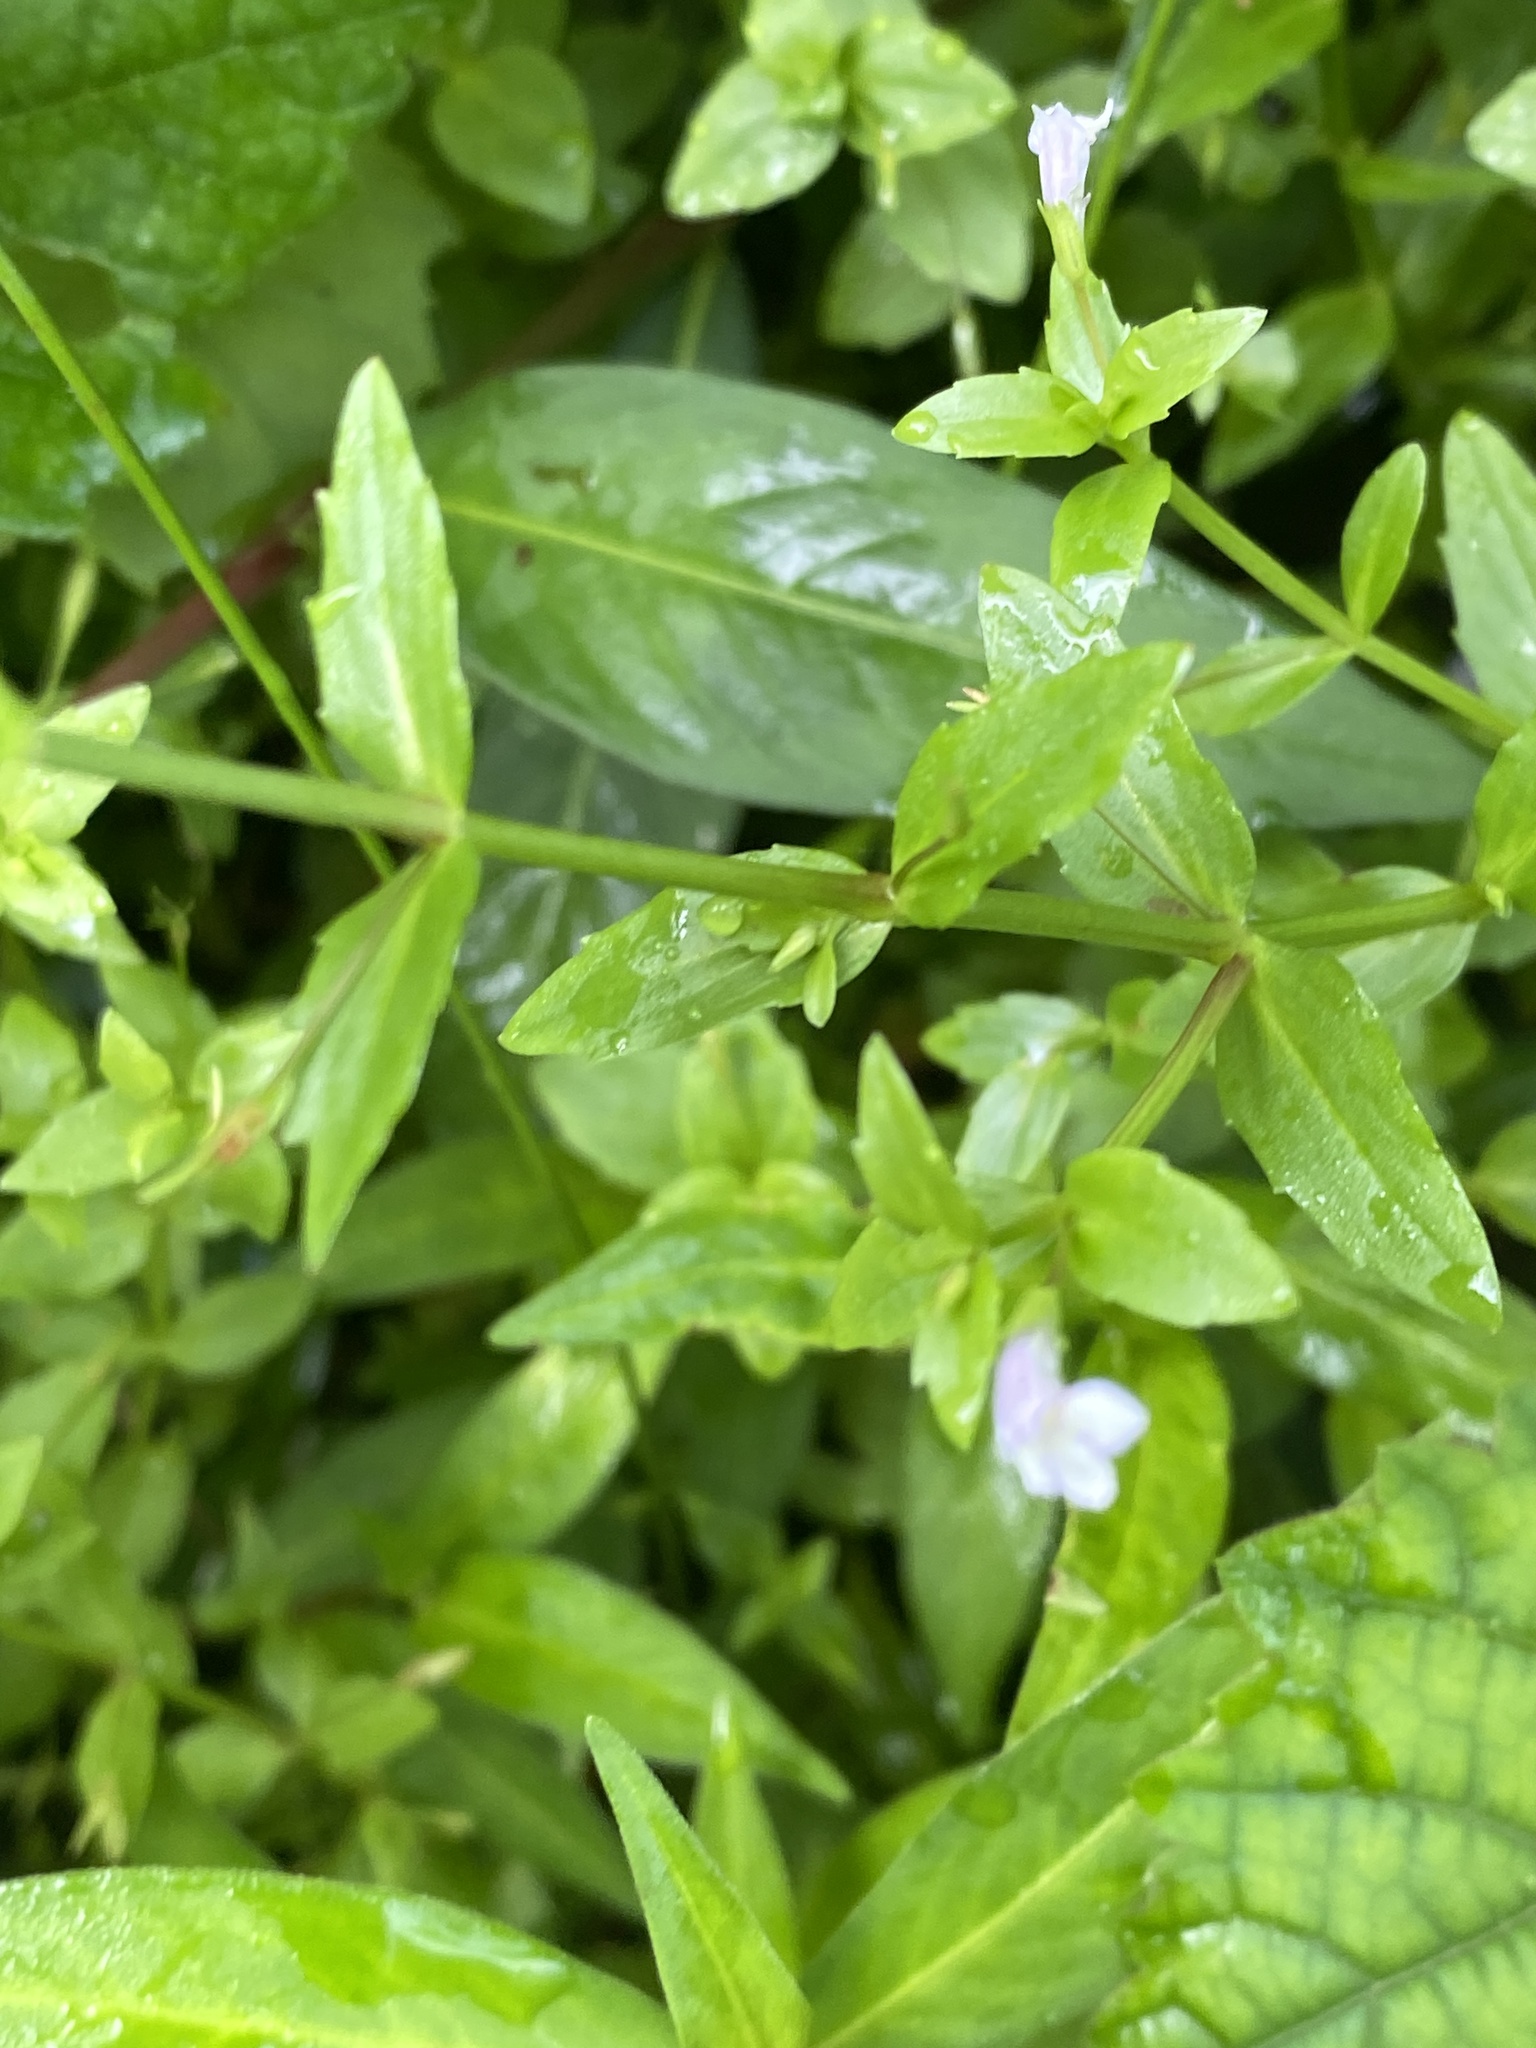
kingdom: Plantae
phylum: Tracheophyta
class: Magnoliopsida
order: Lamiales
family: Plantaginaceae
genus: Mecardonia
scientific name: Mecardonia acuminata
